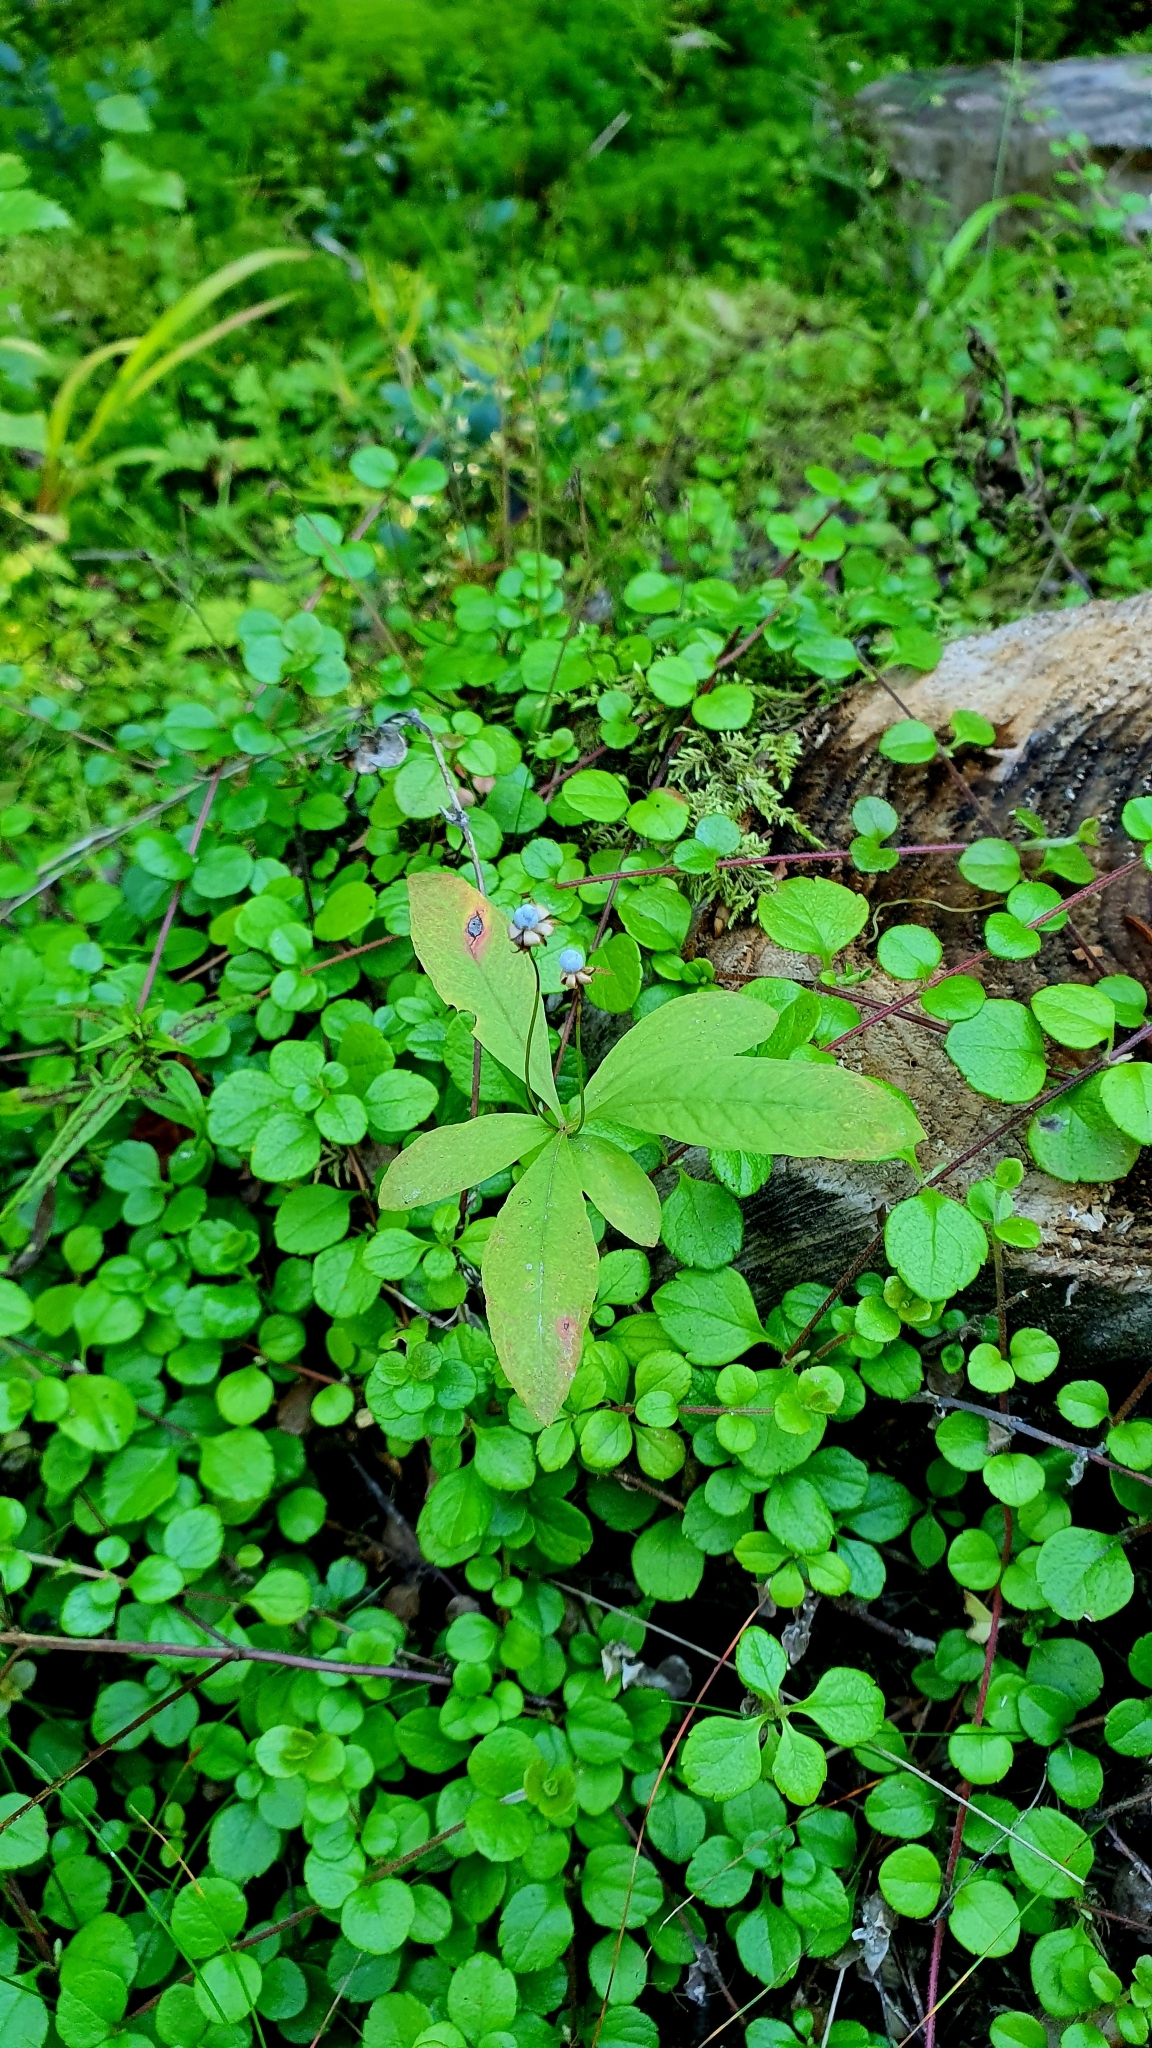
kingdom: Plantae
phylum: Tracheophyta
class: Magnoliopsida
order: Ericales
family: Primulaceae
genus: Lysimachia
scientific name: Lysimachia europaea
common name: Arctic starflower
